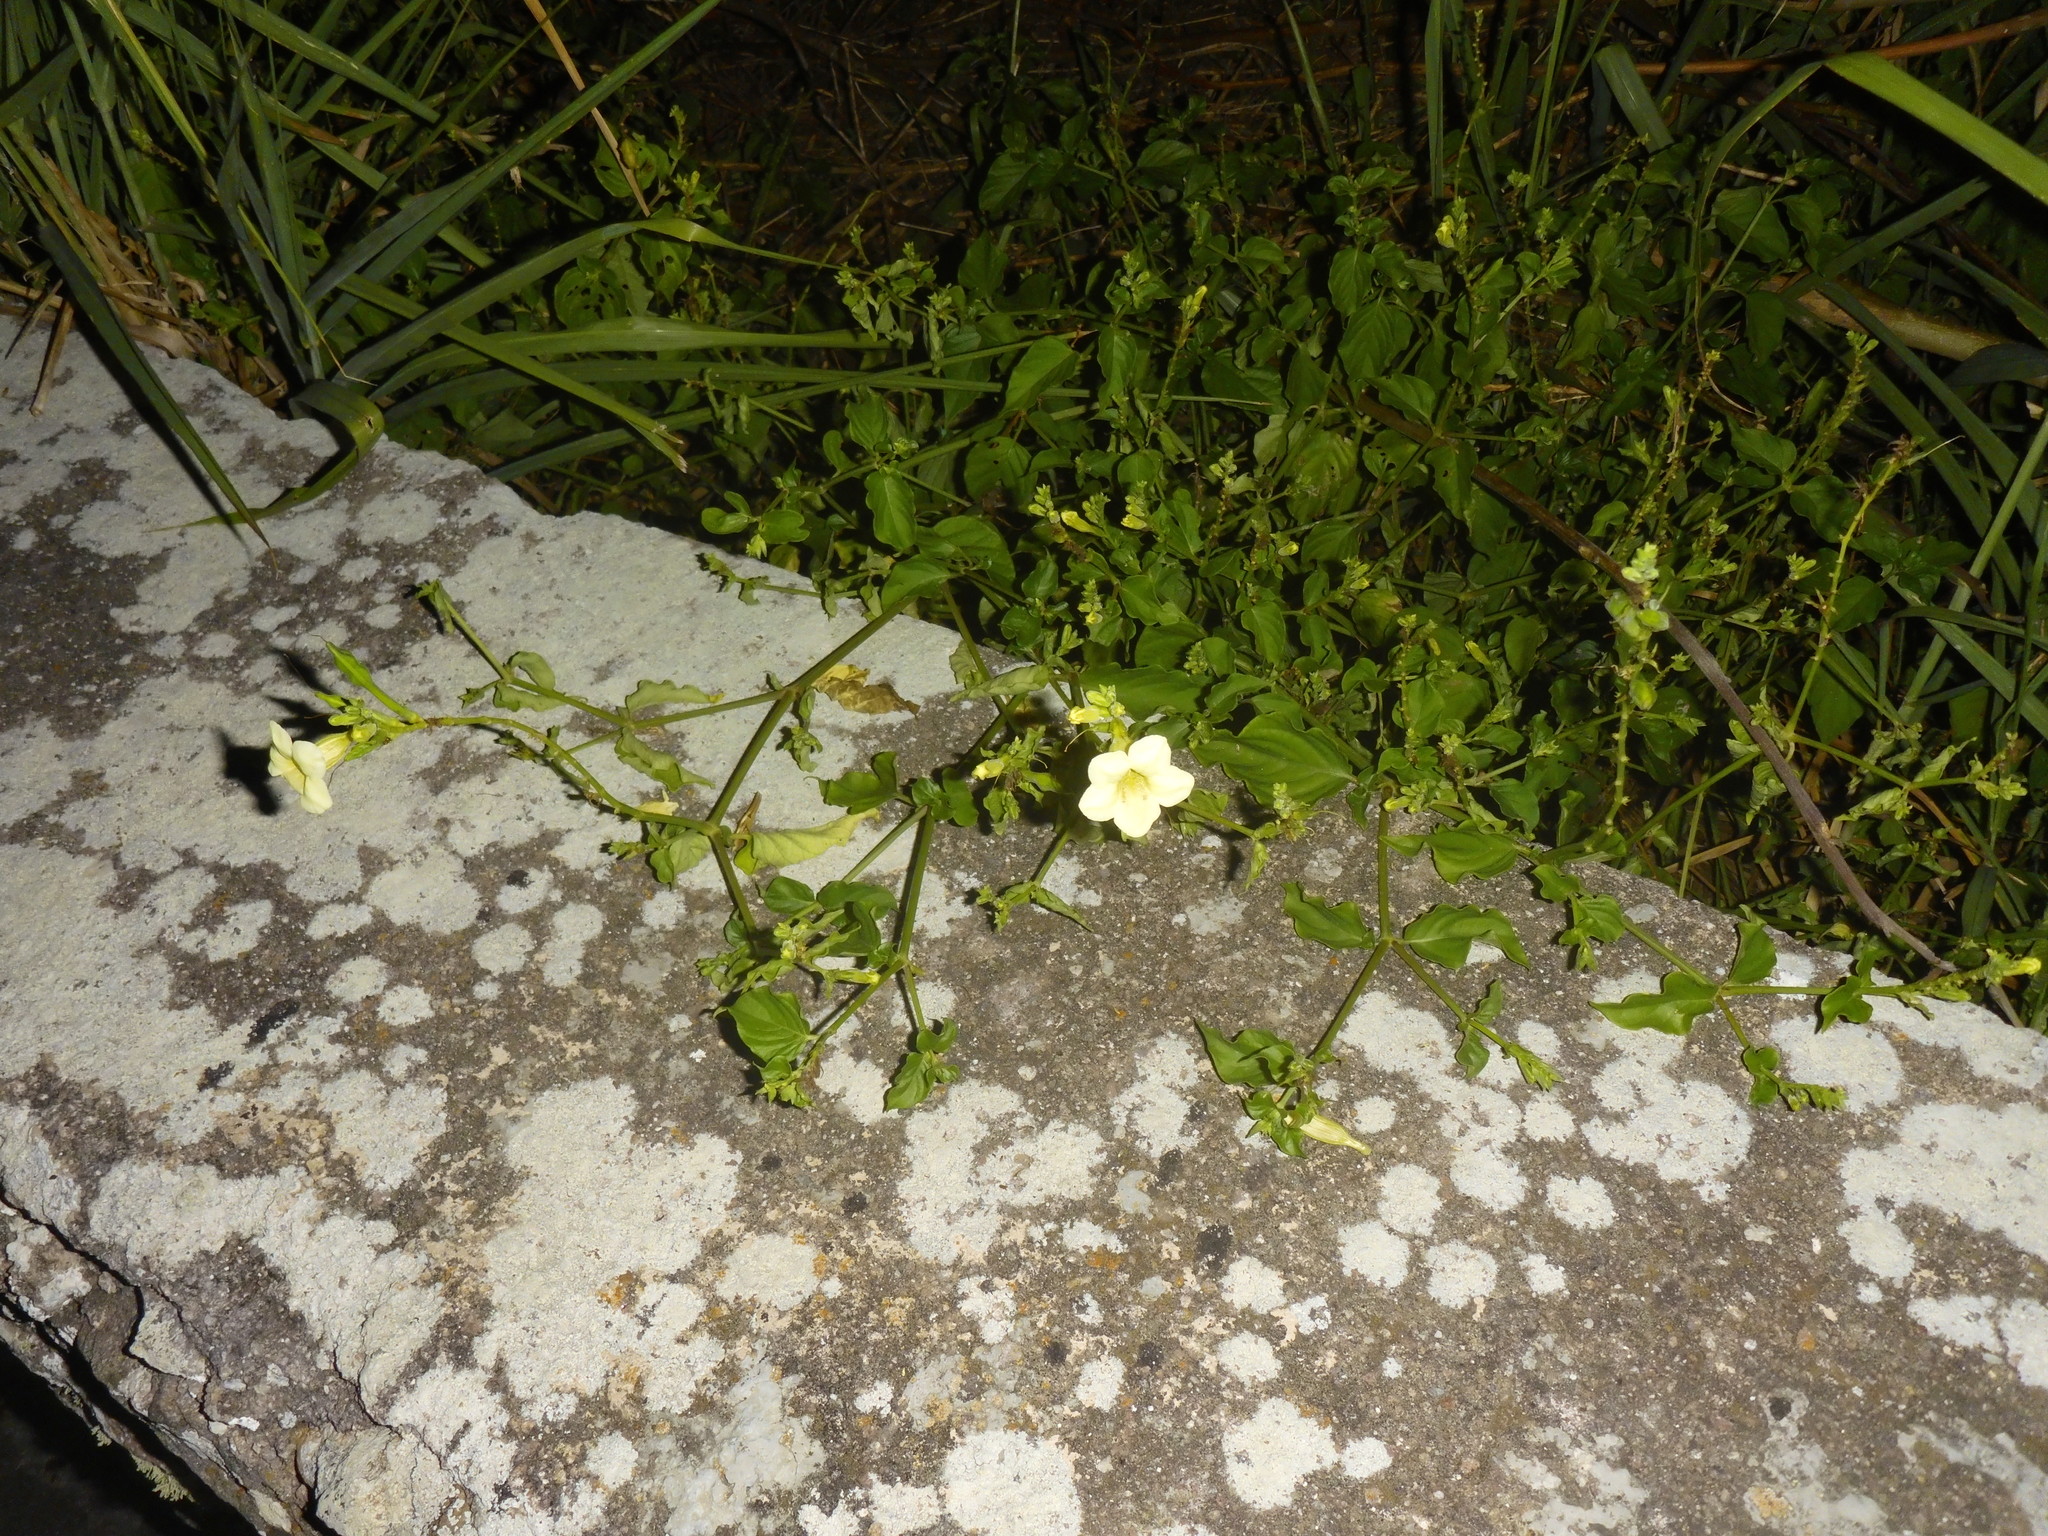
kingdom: Plantae
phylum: Tracheophyta
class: Magnoliopsida
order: Lamiales
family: Acanthaceae
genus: Asystasia
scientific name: Asystasia gangetica
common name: Chinese violet
